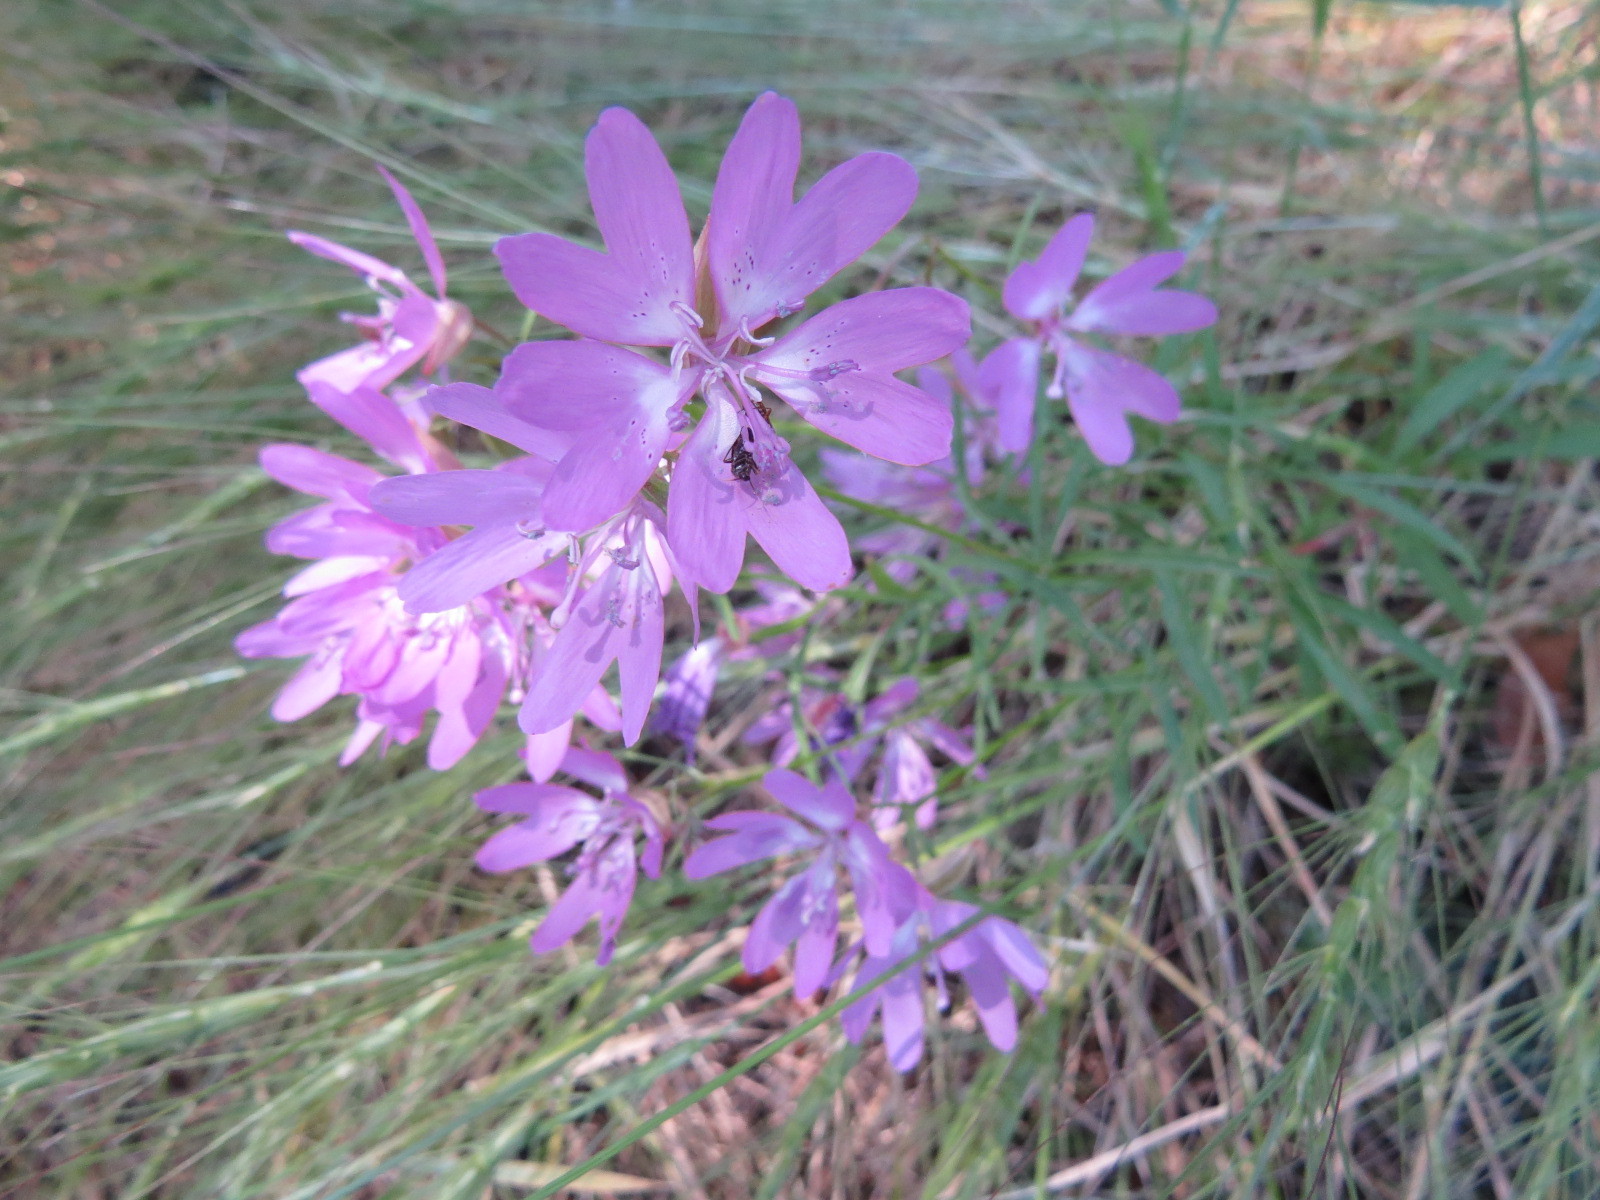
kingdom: Plantae
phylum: Tracheophyta
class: Magnoliopsida
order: Myrtales
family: Onagraceae
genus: Clarkia
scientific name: Clarkia biloba
